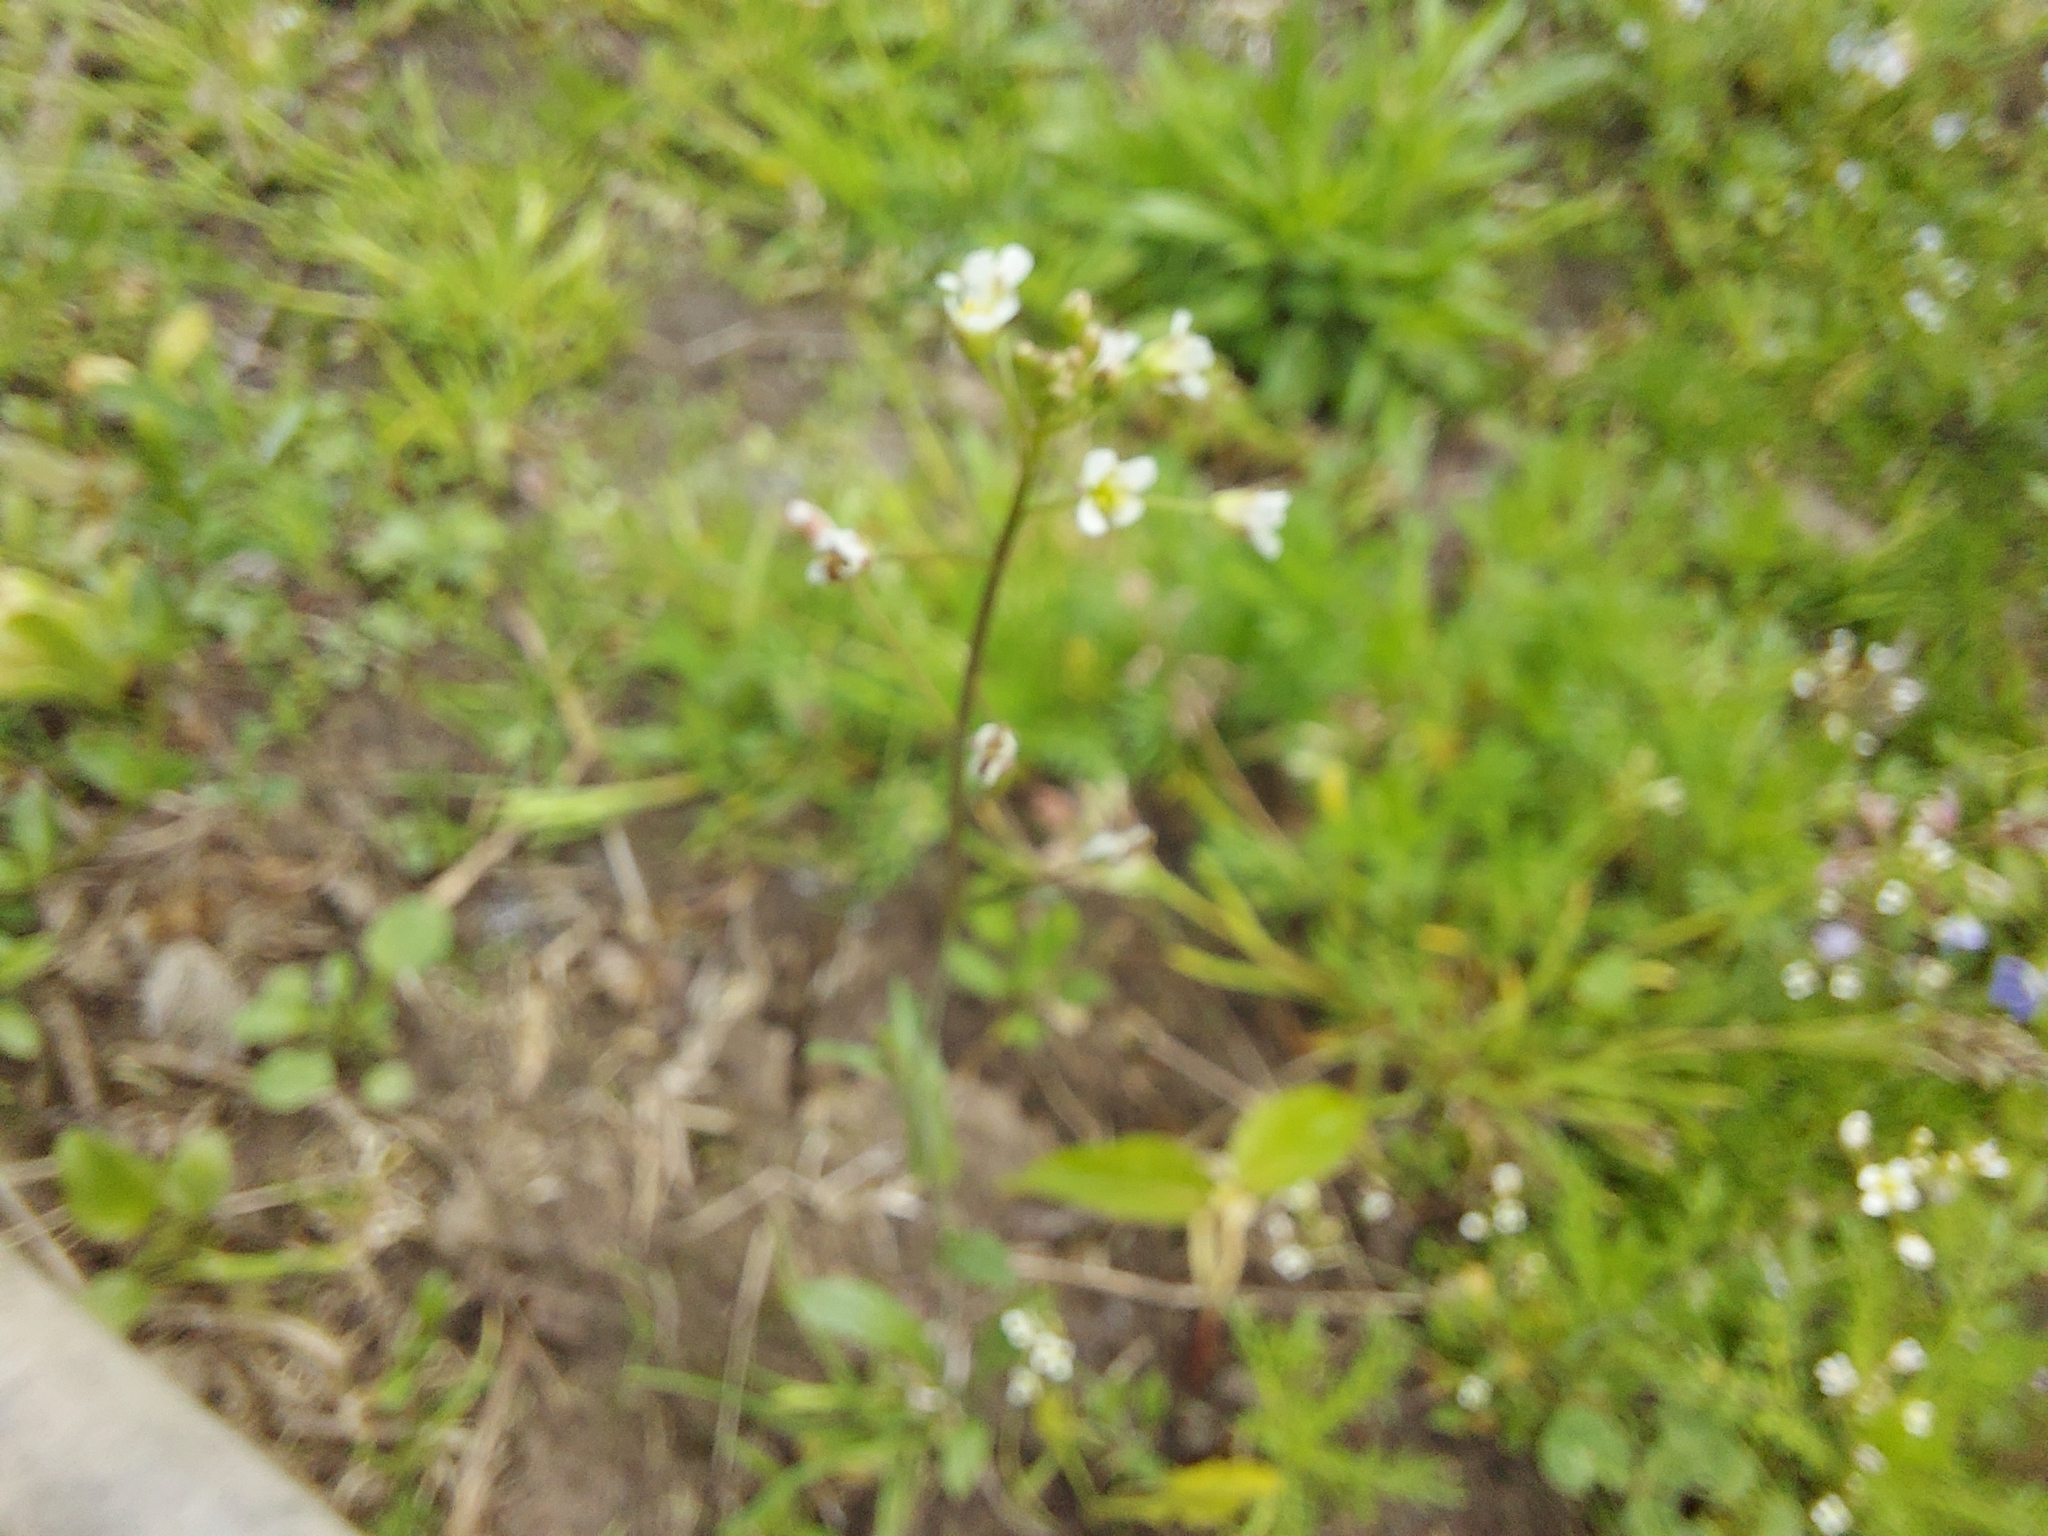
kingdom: Plantae
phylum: Tracheophyta
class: Magnoliopsida
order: Brassicales
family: Brassicaceae
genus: Capsella
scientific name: Capsella bursa-pastoris
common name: Shepherd's purse
